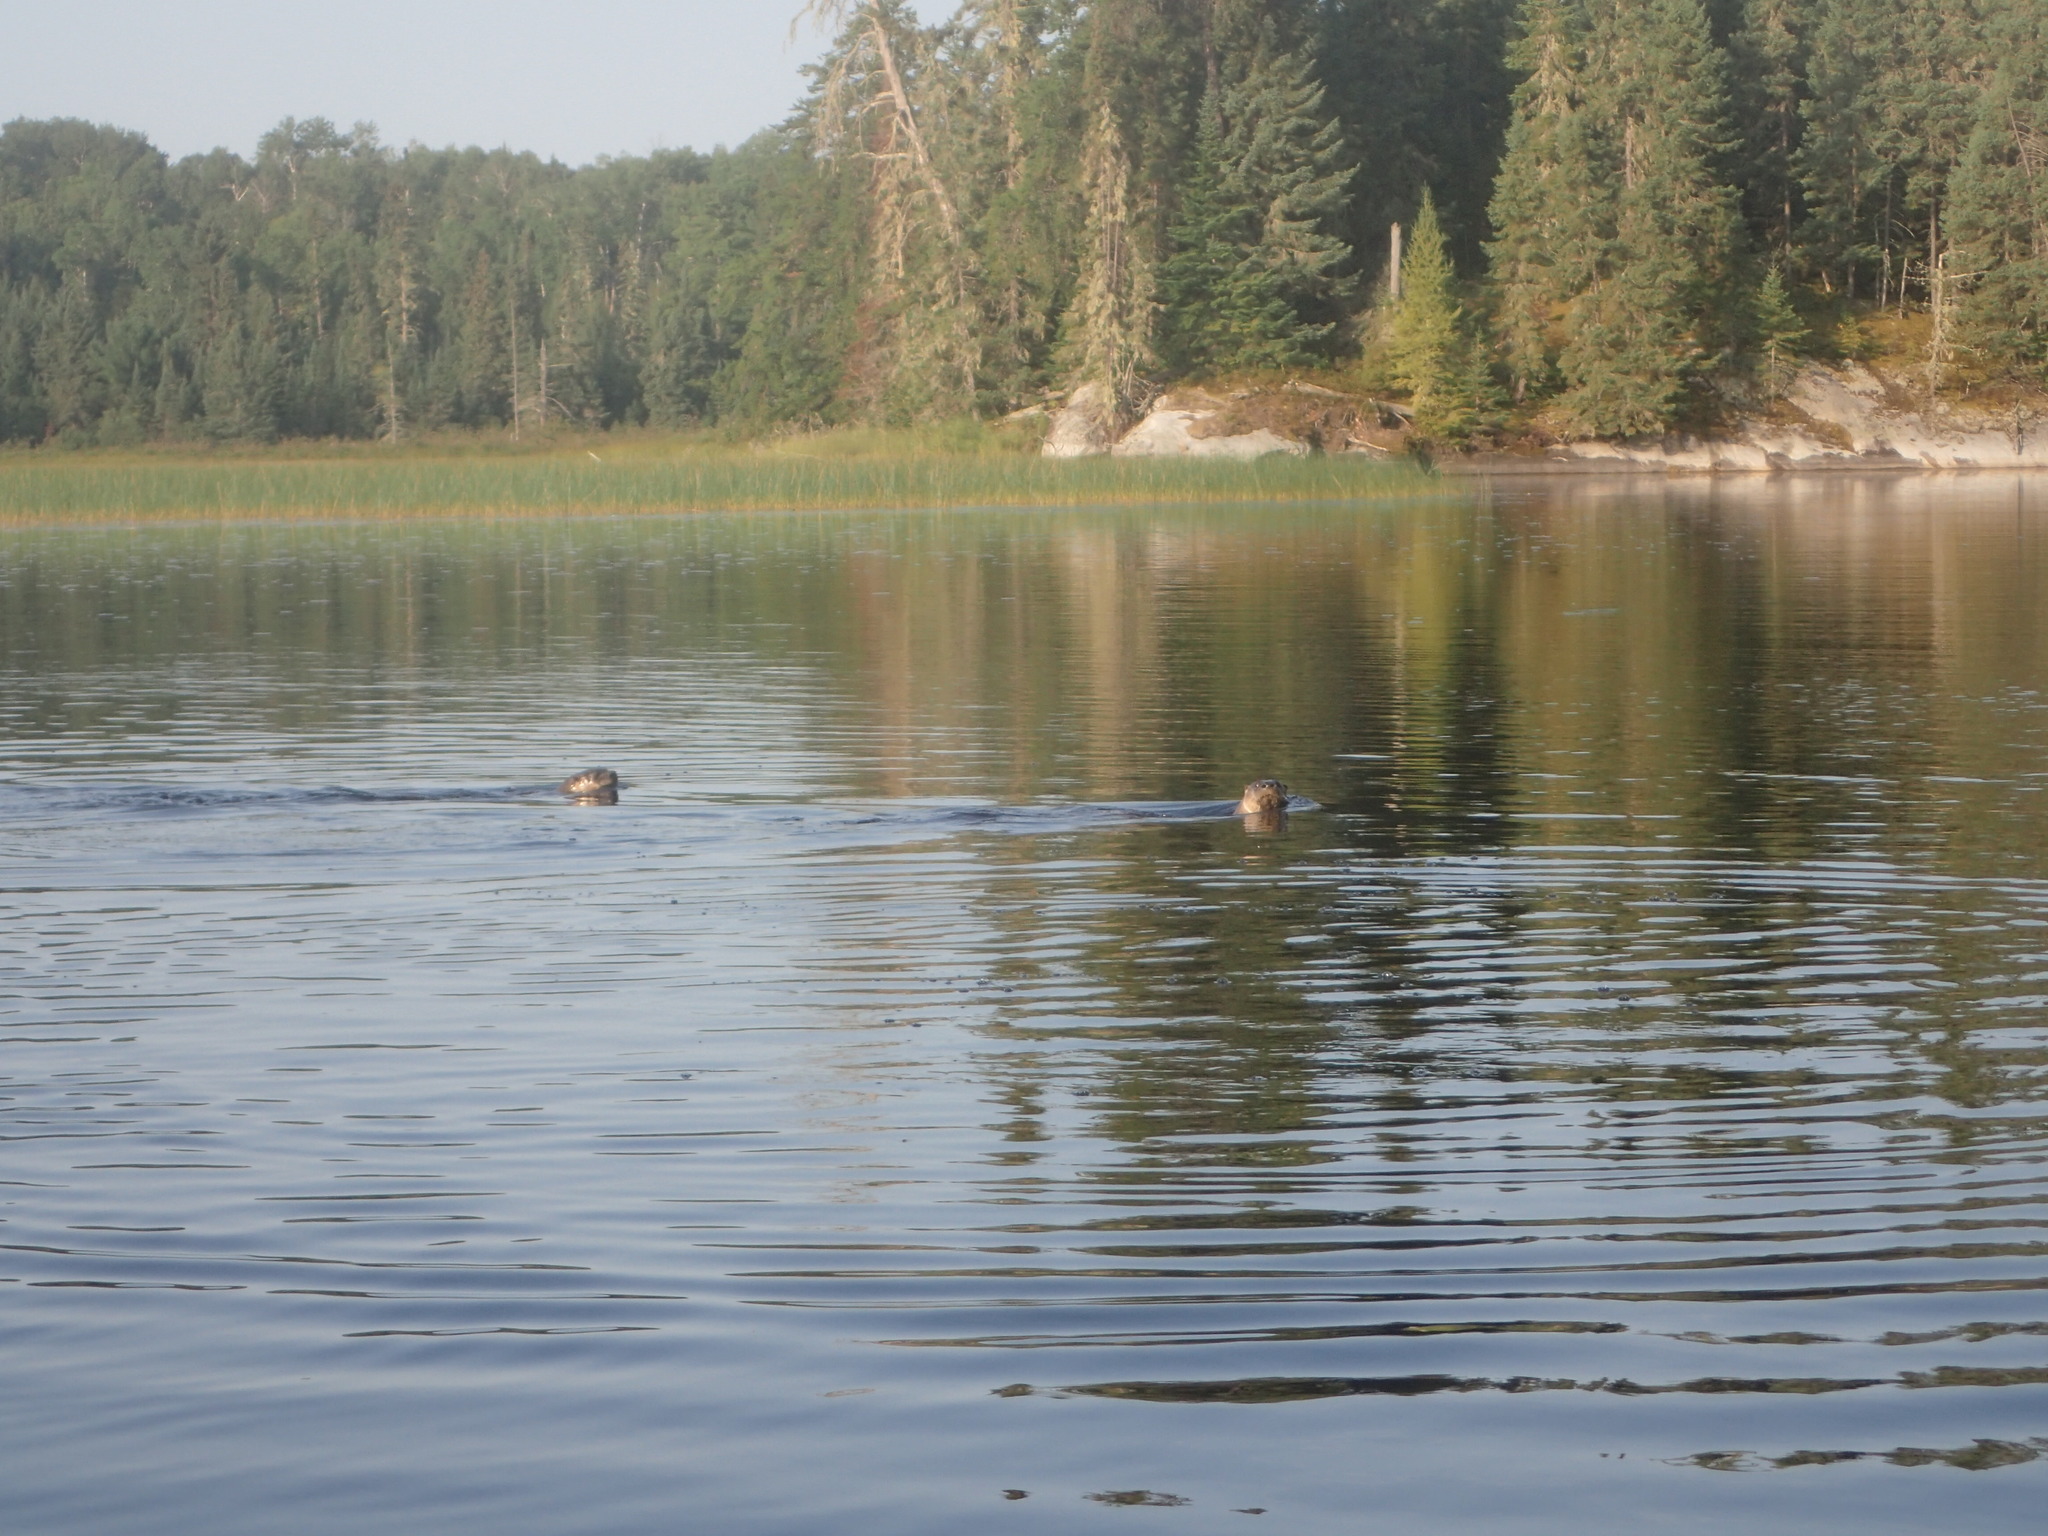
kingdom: Animalia
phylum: Chordata
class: Mammalia
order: Carnivora
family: Mustelidae
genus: Lontra
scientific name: Lontra canadensis
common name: North american river otter
